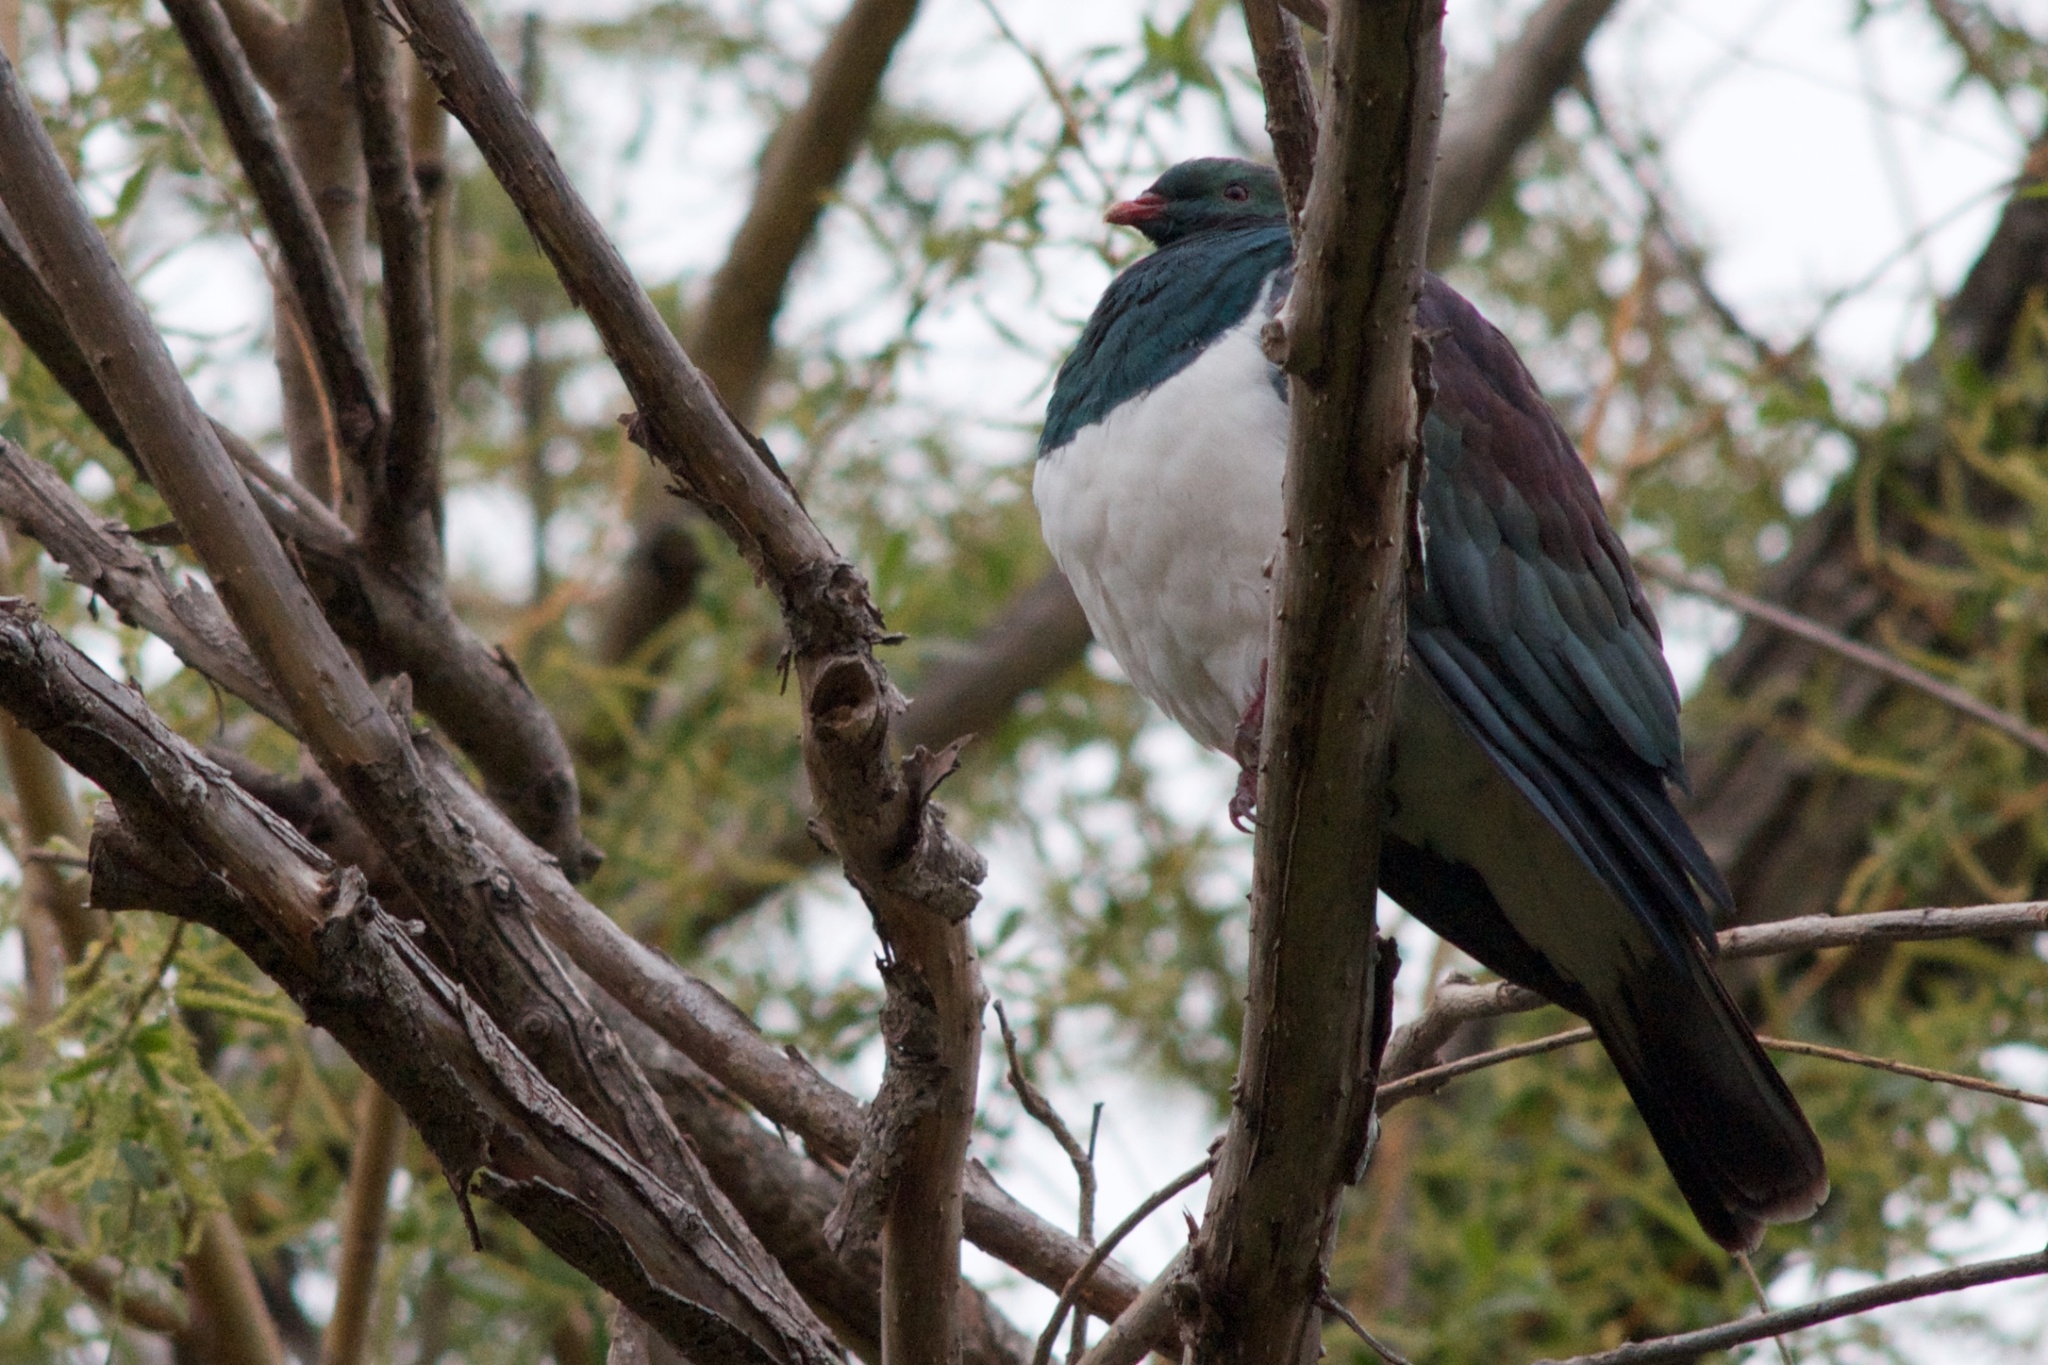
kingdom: Animalia
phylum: Chordata
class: Aves
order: Columbiformes
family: Columbidae
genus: Hemiphaga
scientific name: Hemiphaga novaeseelandiae
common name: New zealand pigeon
